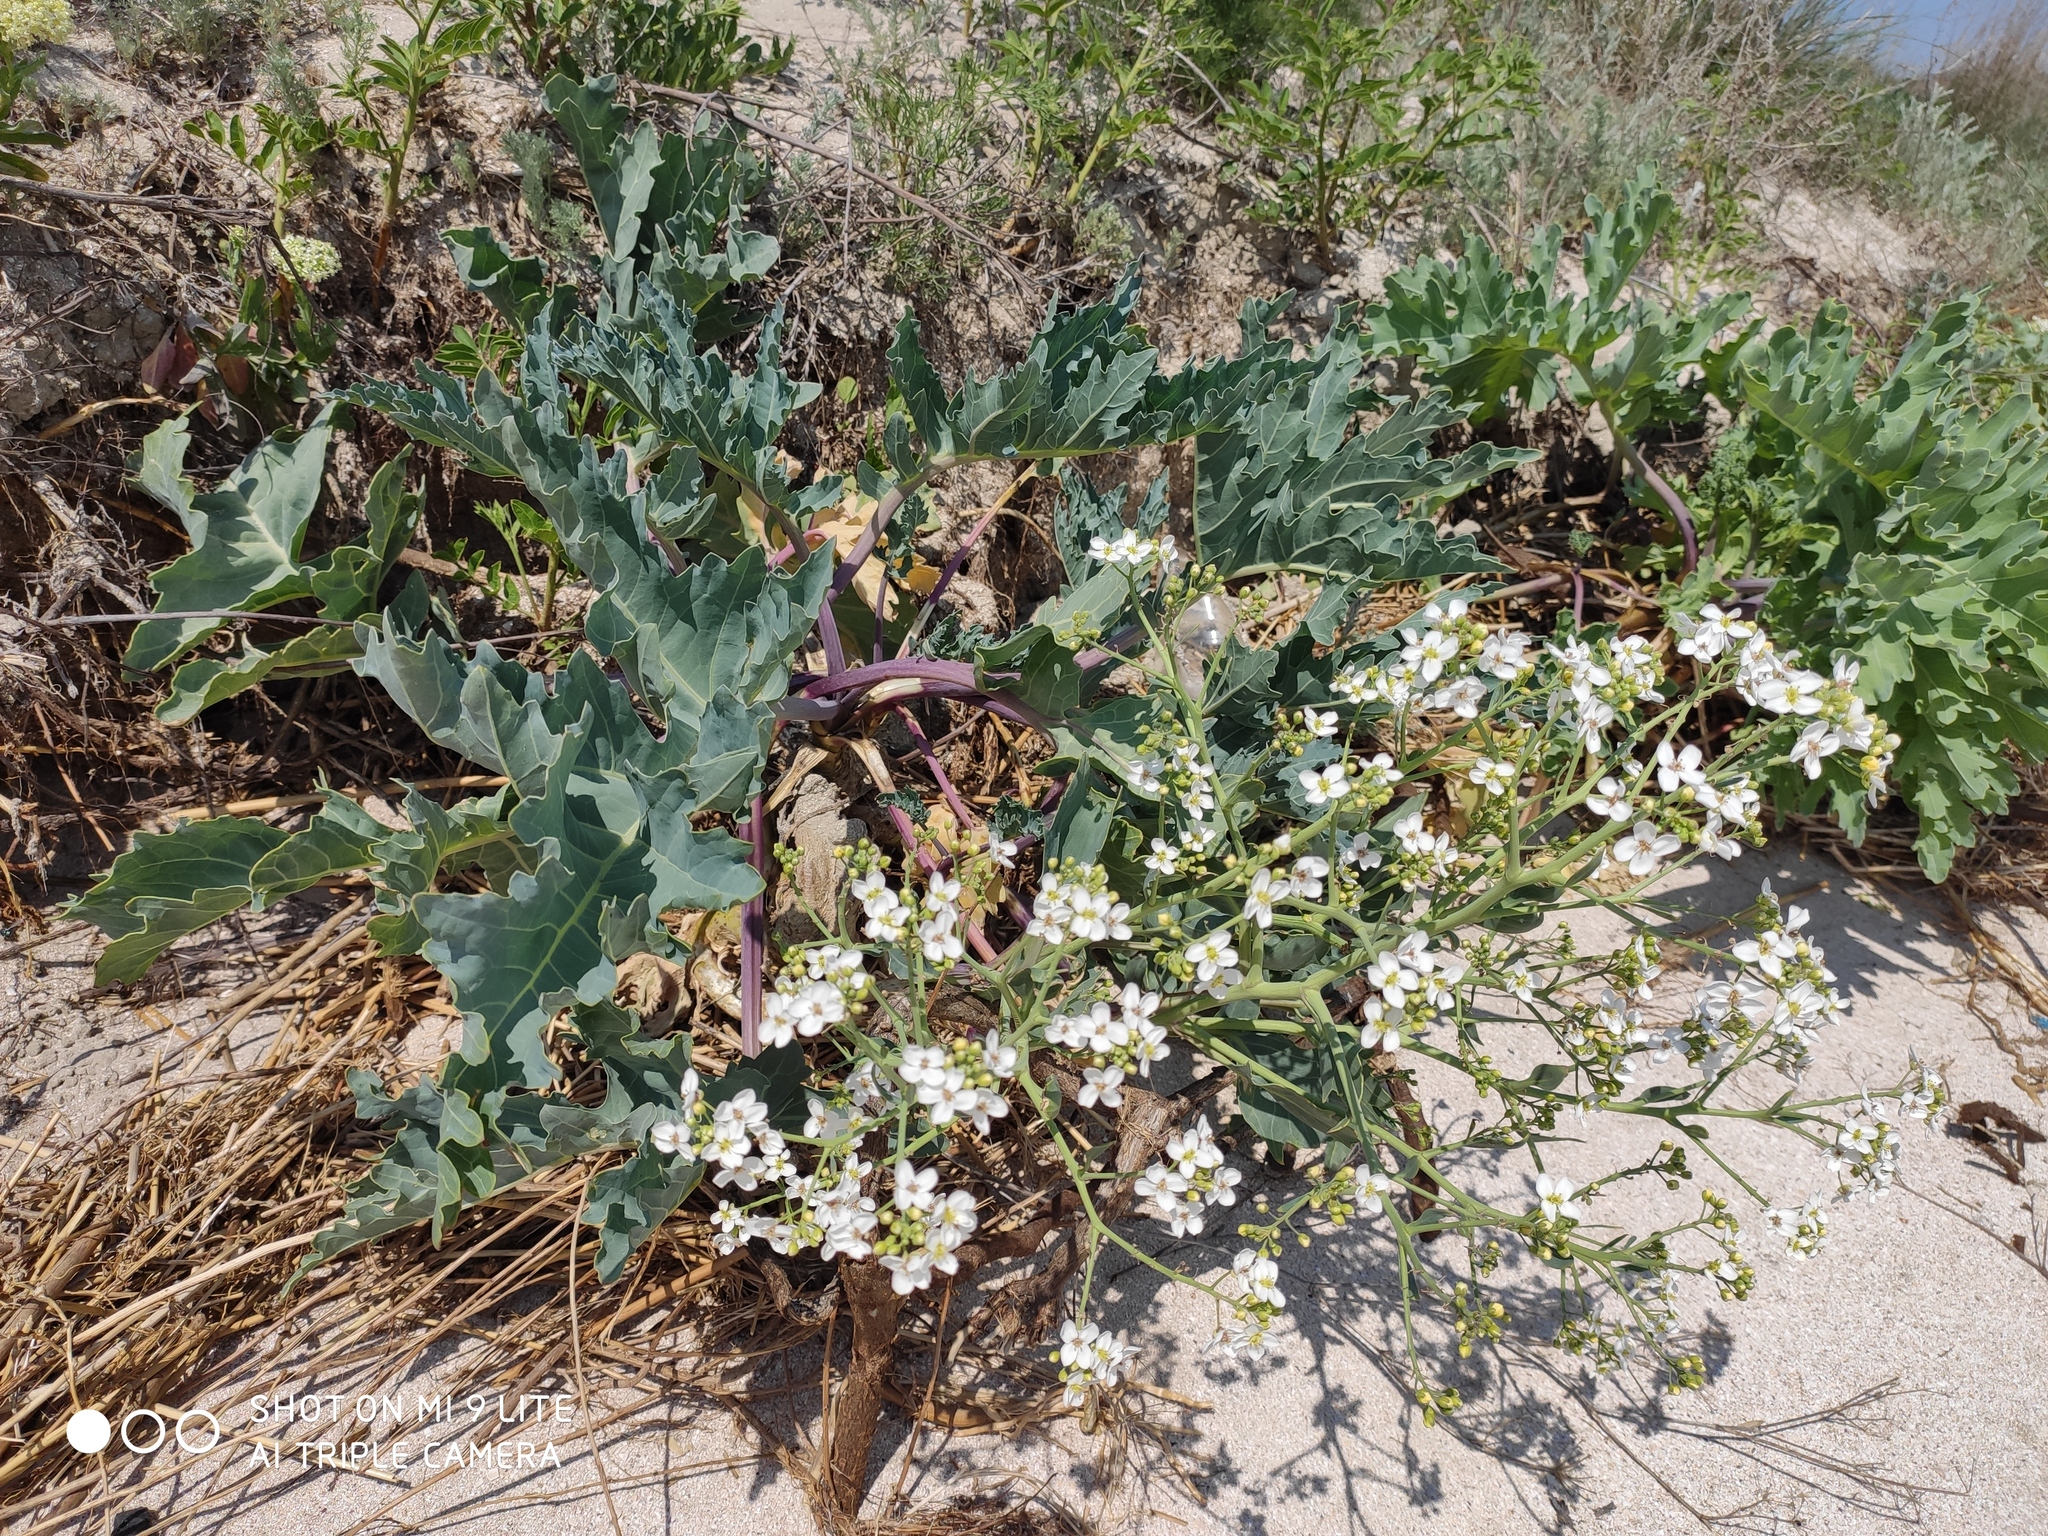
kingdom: Plantae
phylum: Tracheophyta
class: Magnoliopsida
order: Brassicales
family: Brassicaceae
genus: Crambe
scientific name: Crambe maritima
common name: Sea-kale
